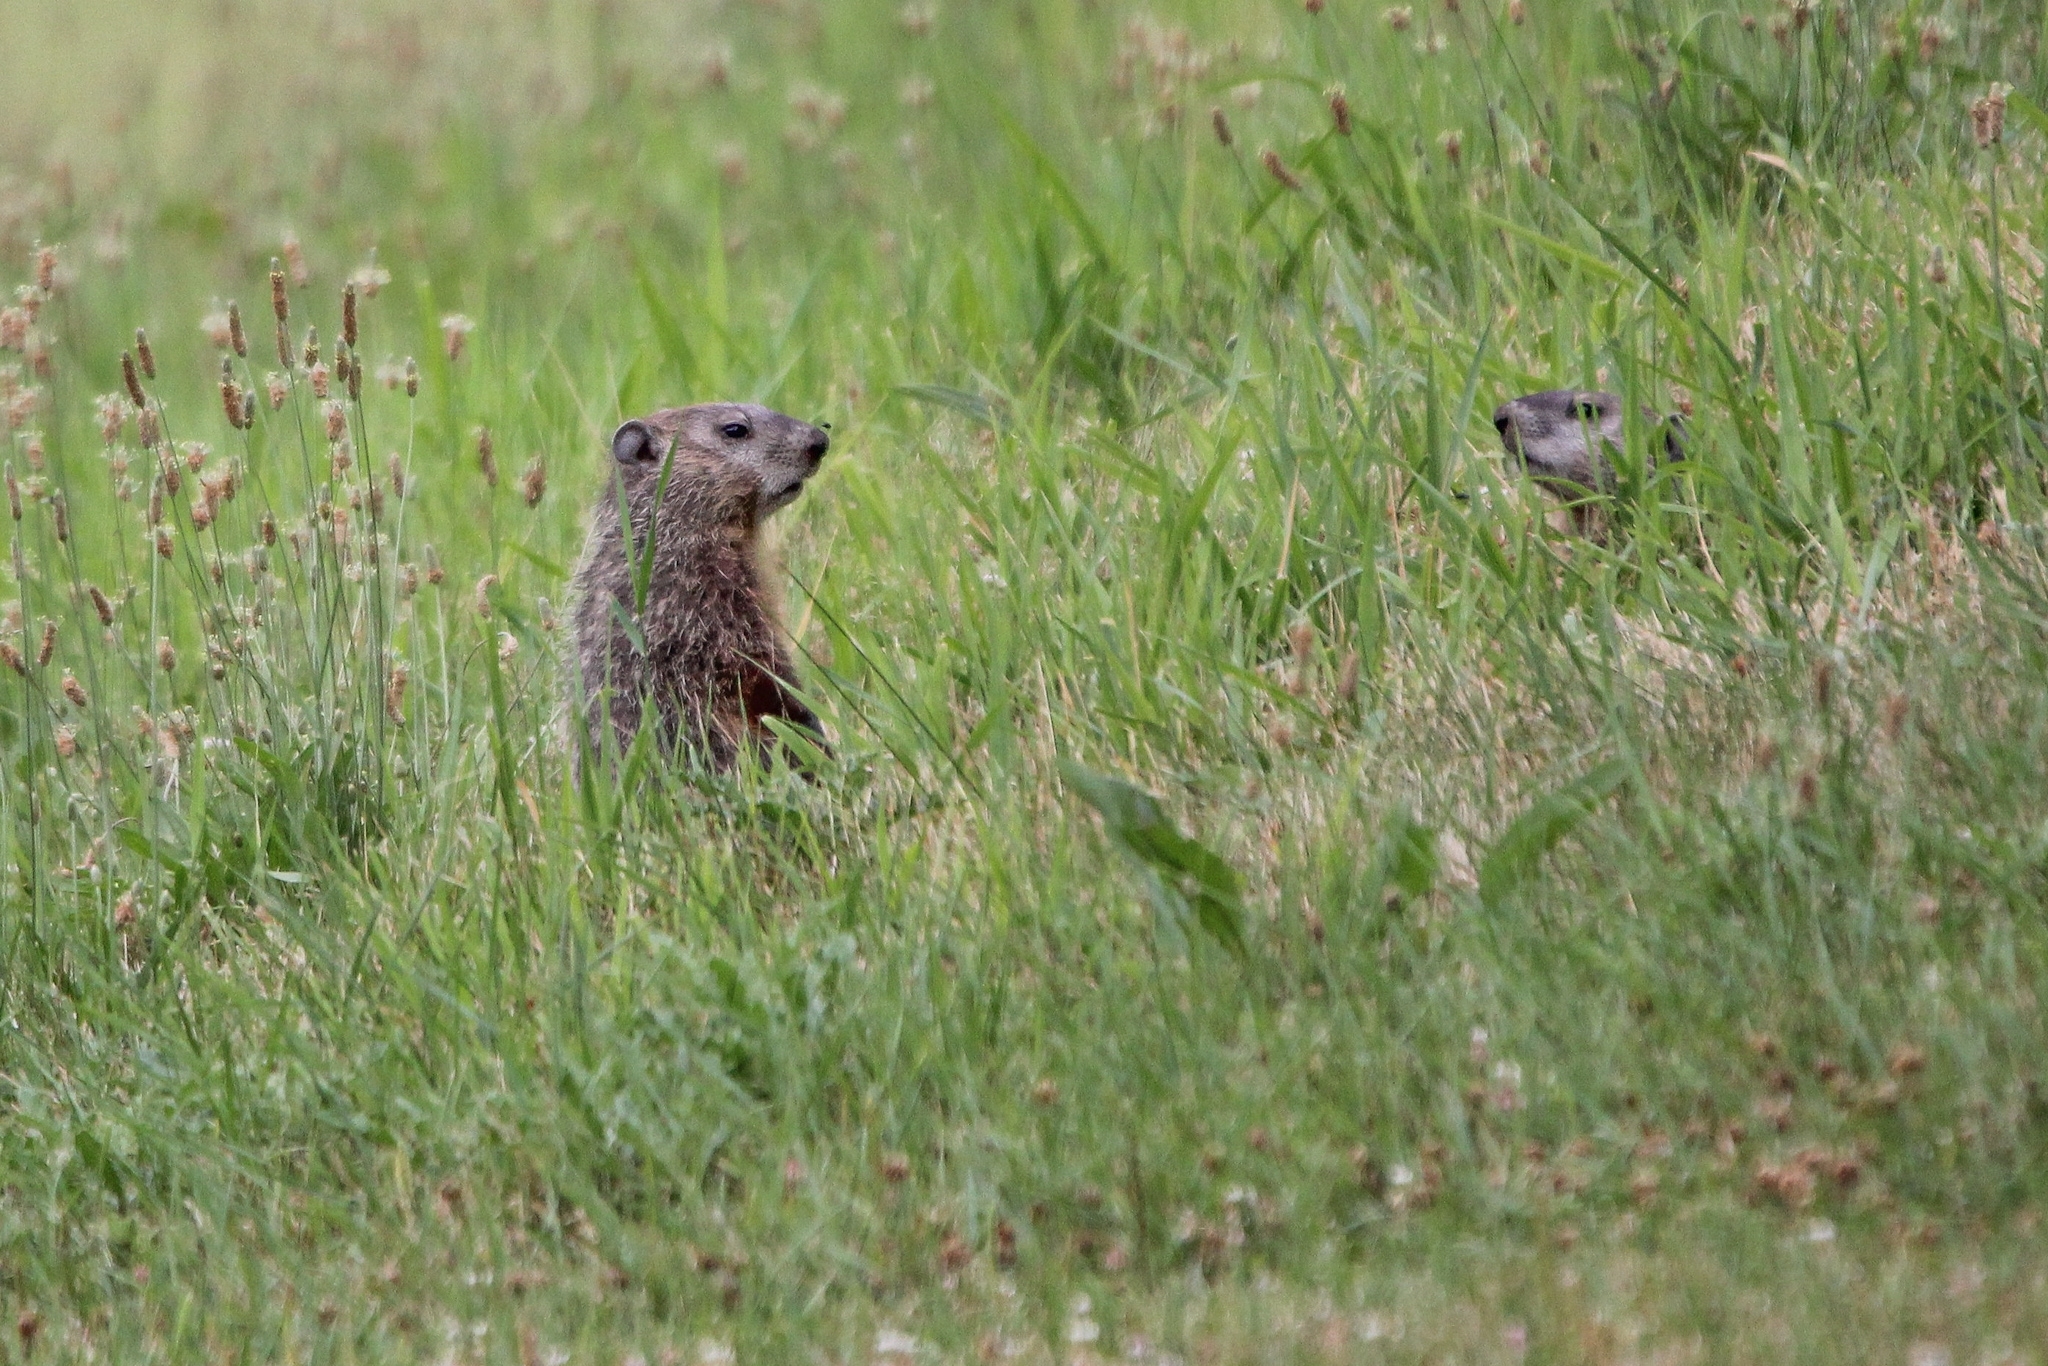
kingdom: Animalia
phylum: Chordata
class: Mammalia
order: Rodentia
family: Sciuridae
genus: Marmota
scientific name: Marmota monax
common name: Groundhog
